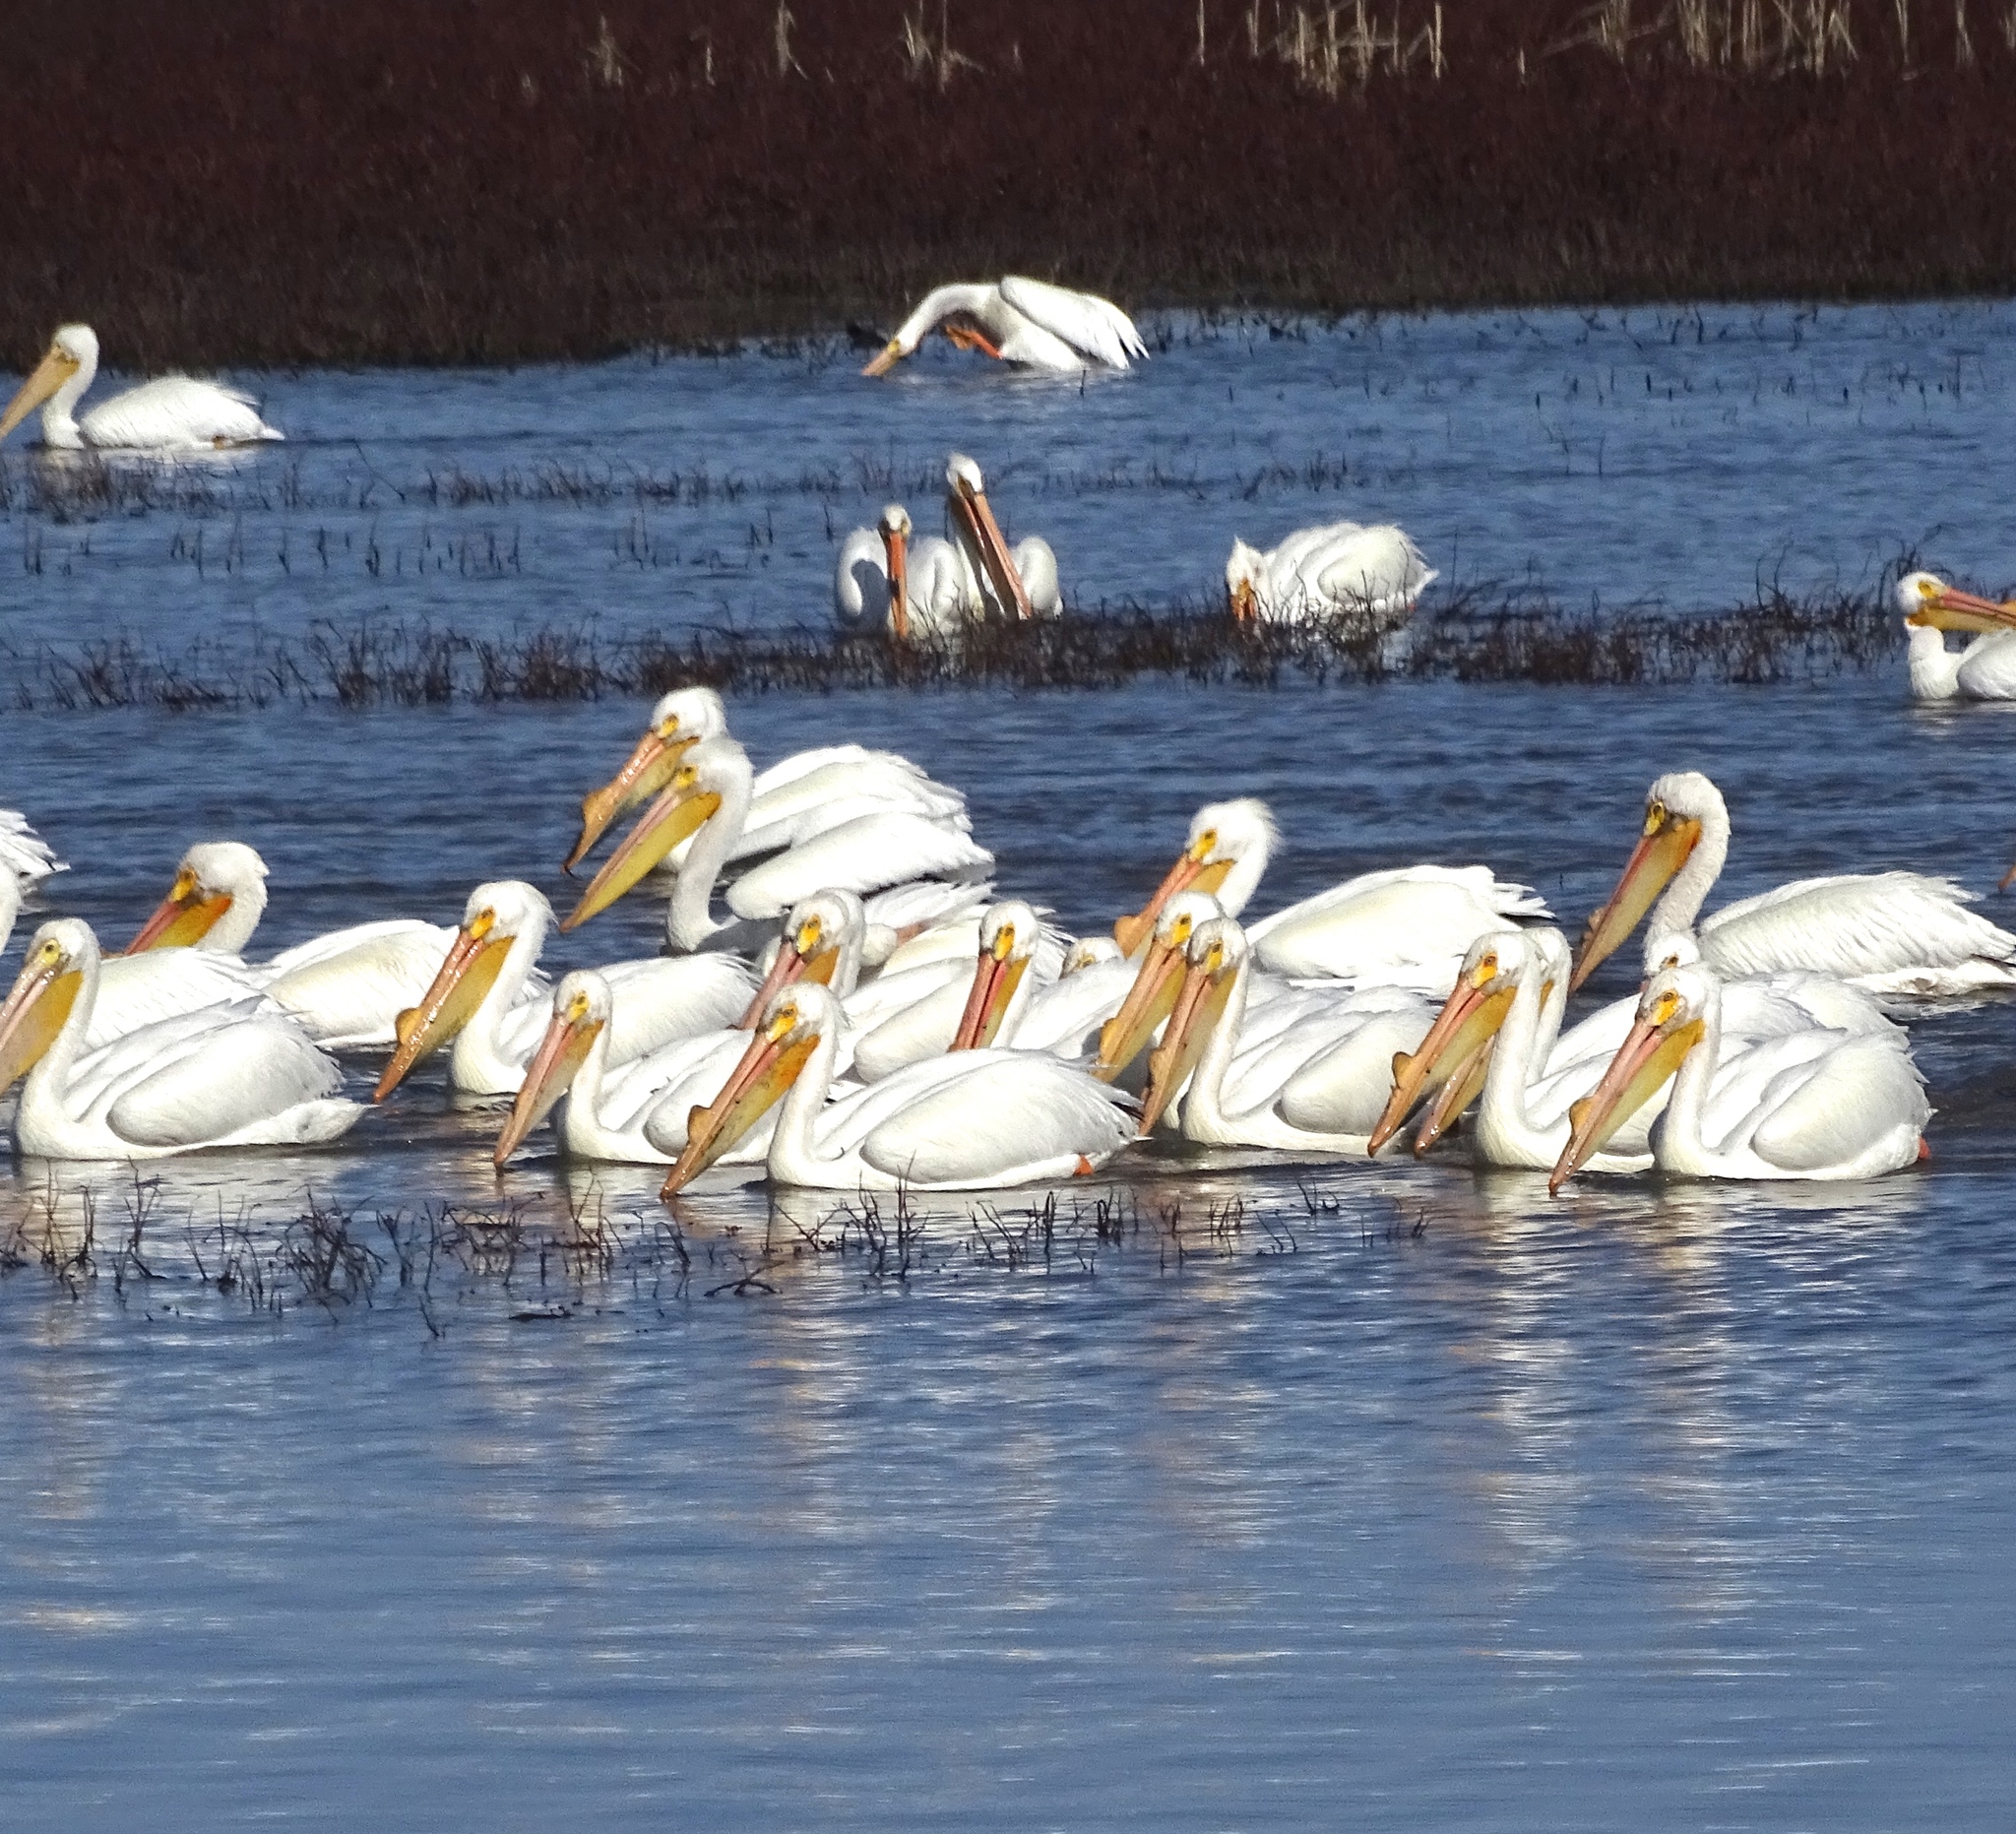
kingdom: Animalia
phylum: Chordata
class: Aves
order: Pelecaniformes
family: Pelecanidae
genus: Pelecanus
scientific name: Pelecanus erythrorhynchos
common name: American white pelican
